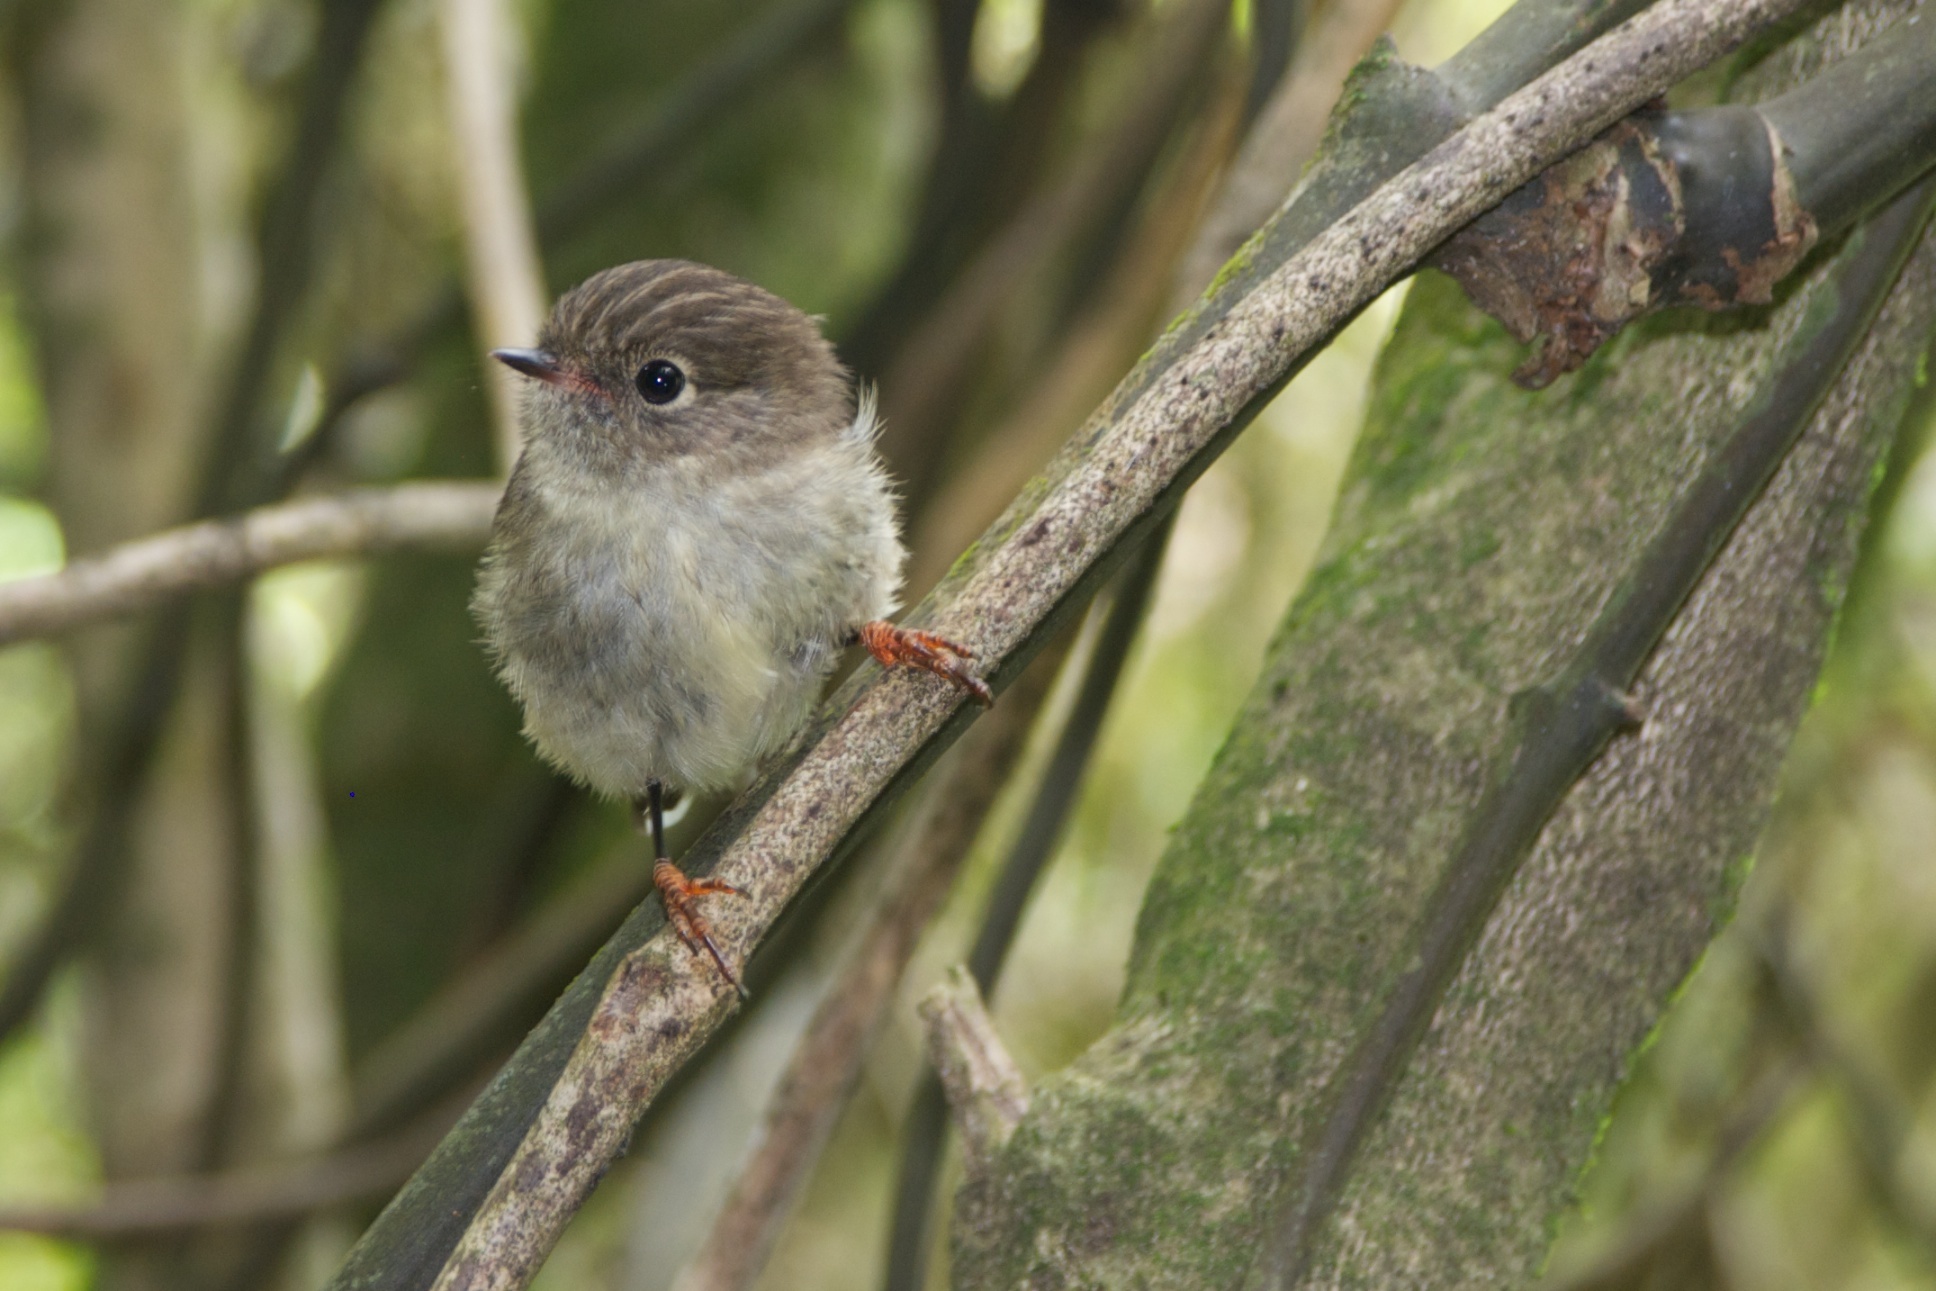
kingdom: Animalia
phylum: Chordata
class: Aves
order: Passeriformes
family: Petroicidae
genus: Petroica
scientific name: Petroica macrocephala
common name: Tomtit
